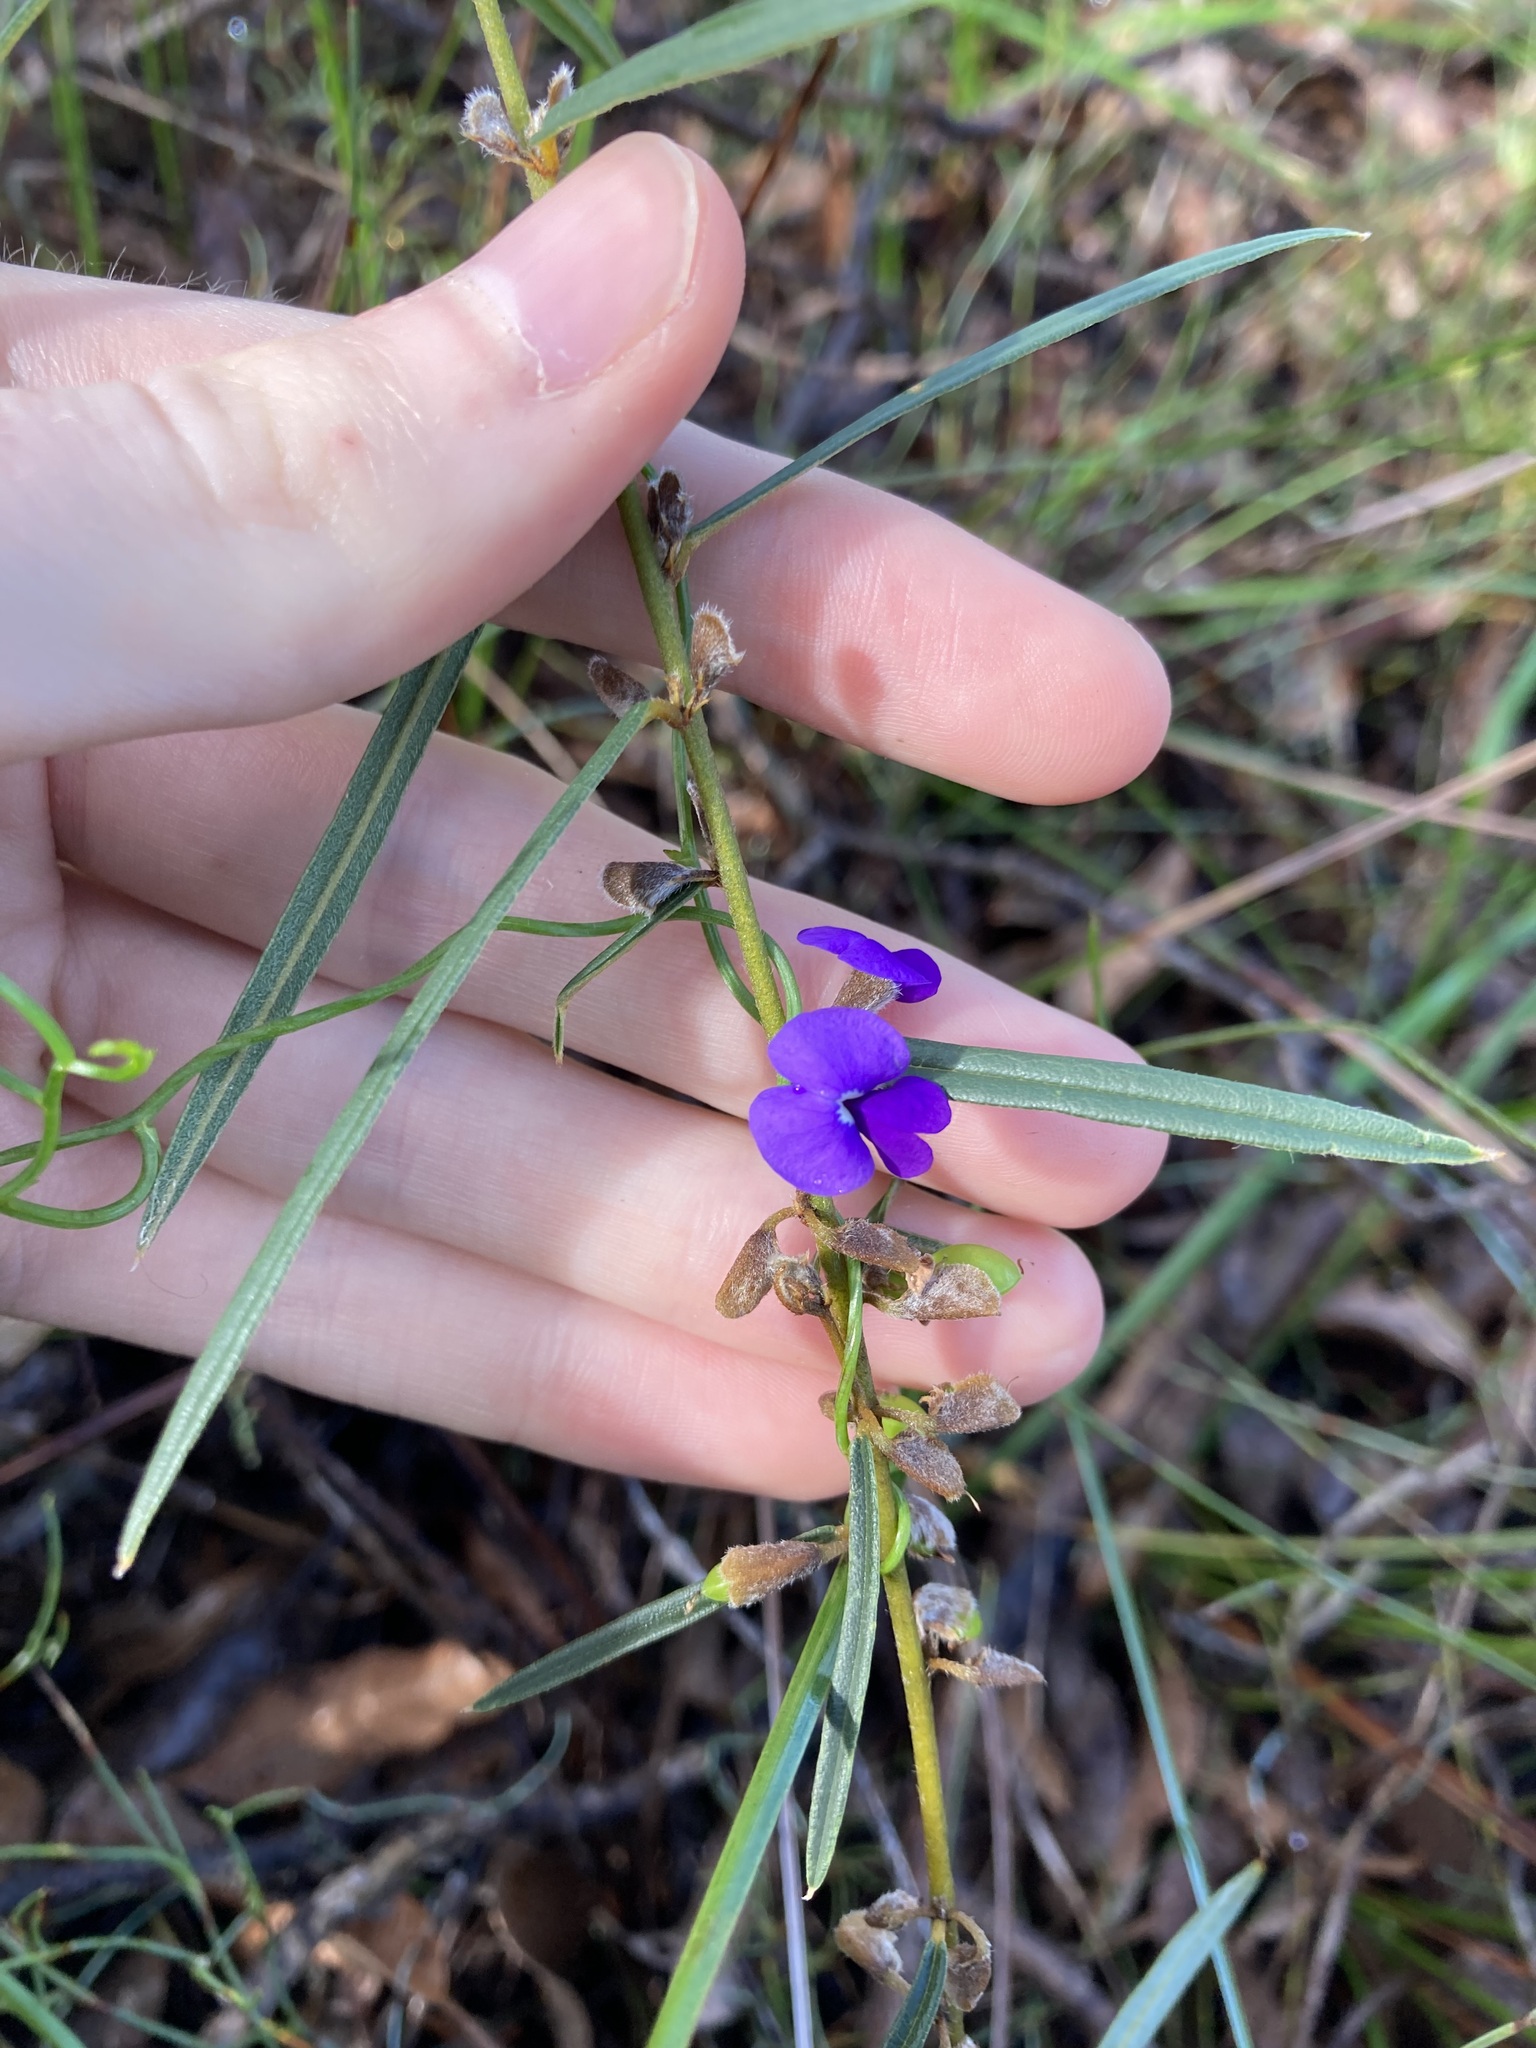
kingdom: Plantae
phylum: Tracheophyta
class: Magnoliopsida
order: Fabales
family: Fabaceae
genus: Hovea
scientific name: Hovea trisperma
